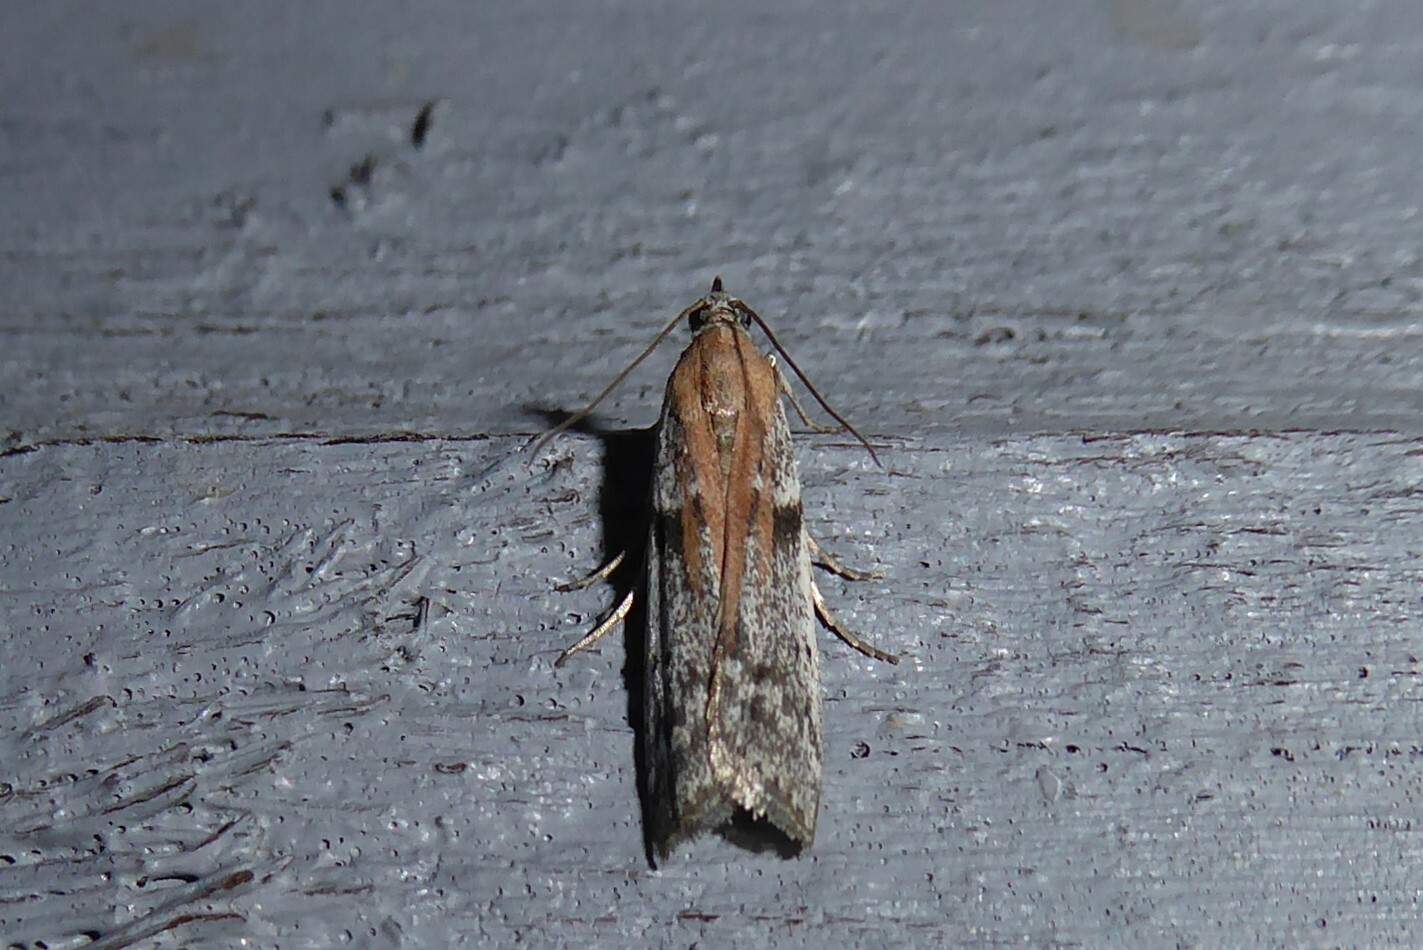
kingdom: Animalia
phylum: Arthropoda
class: Insecta
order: Lepidoptera
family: Pyralidae
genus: Patagoniodes
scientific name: Patagoniodes farinaria
